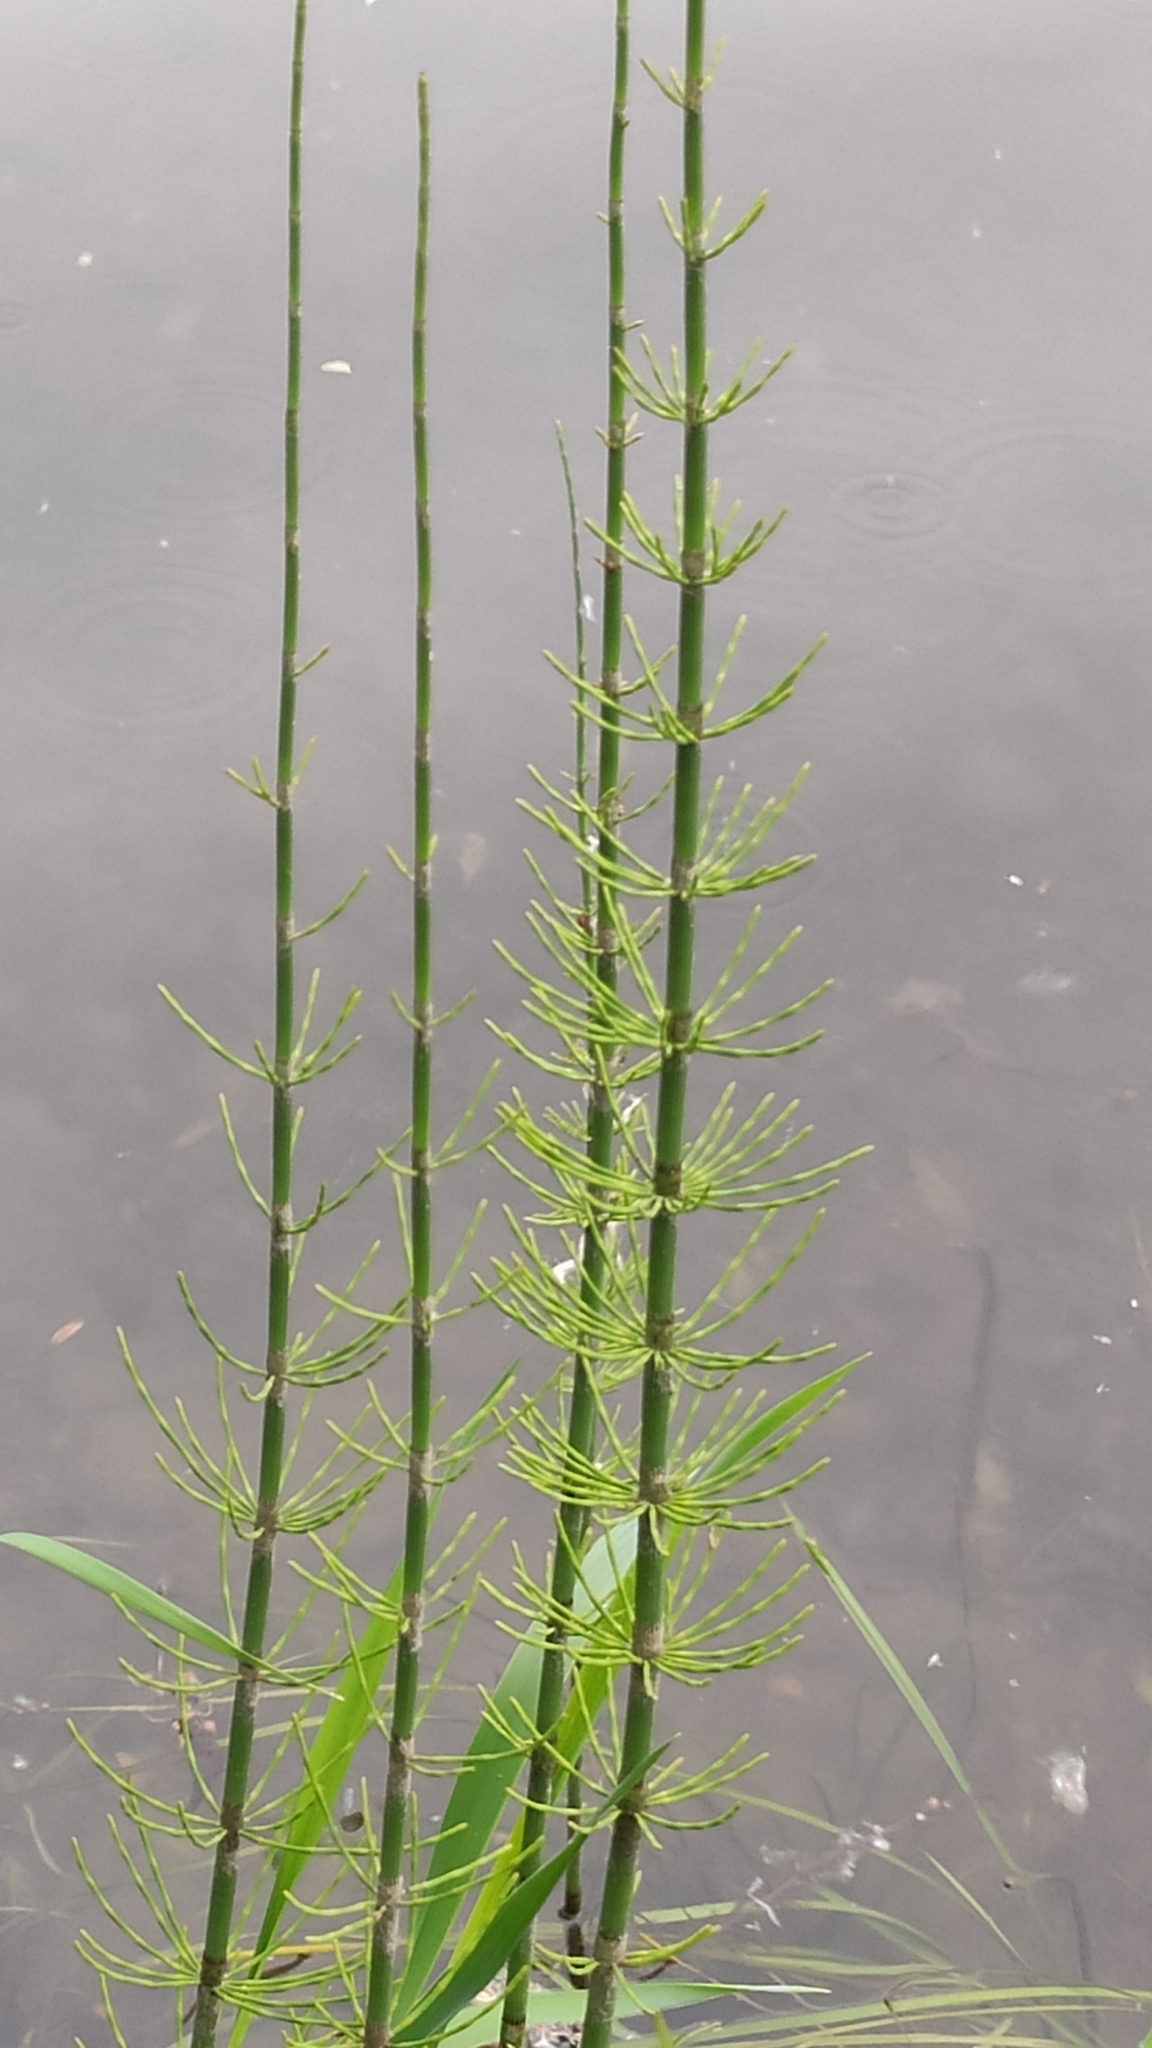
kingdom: Plantae
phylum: Tracheophyta
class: Polypodiopsida
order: Equisetales
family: Equisetaceae
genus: Equisetum
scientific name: Equisetum fluviatile
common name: Water horsetail
